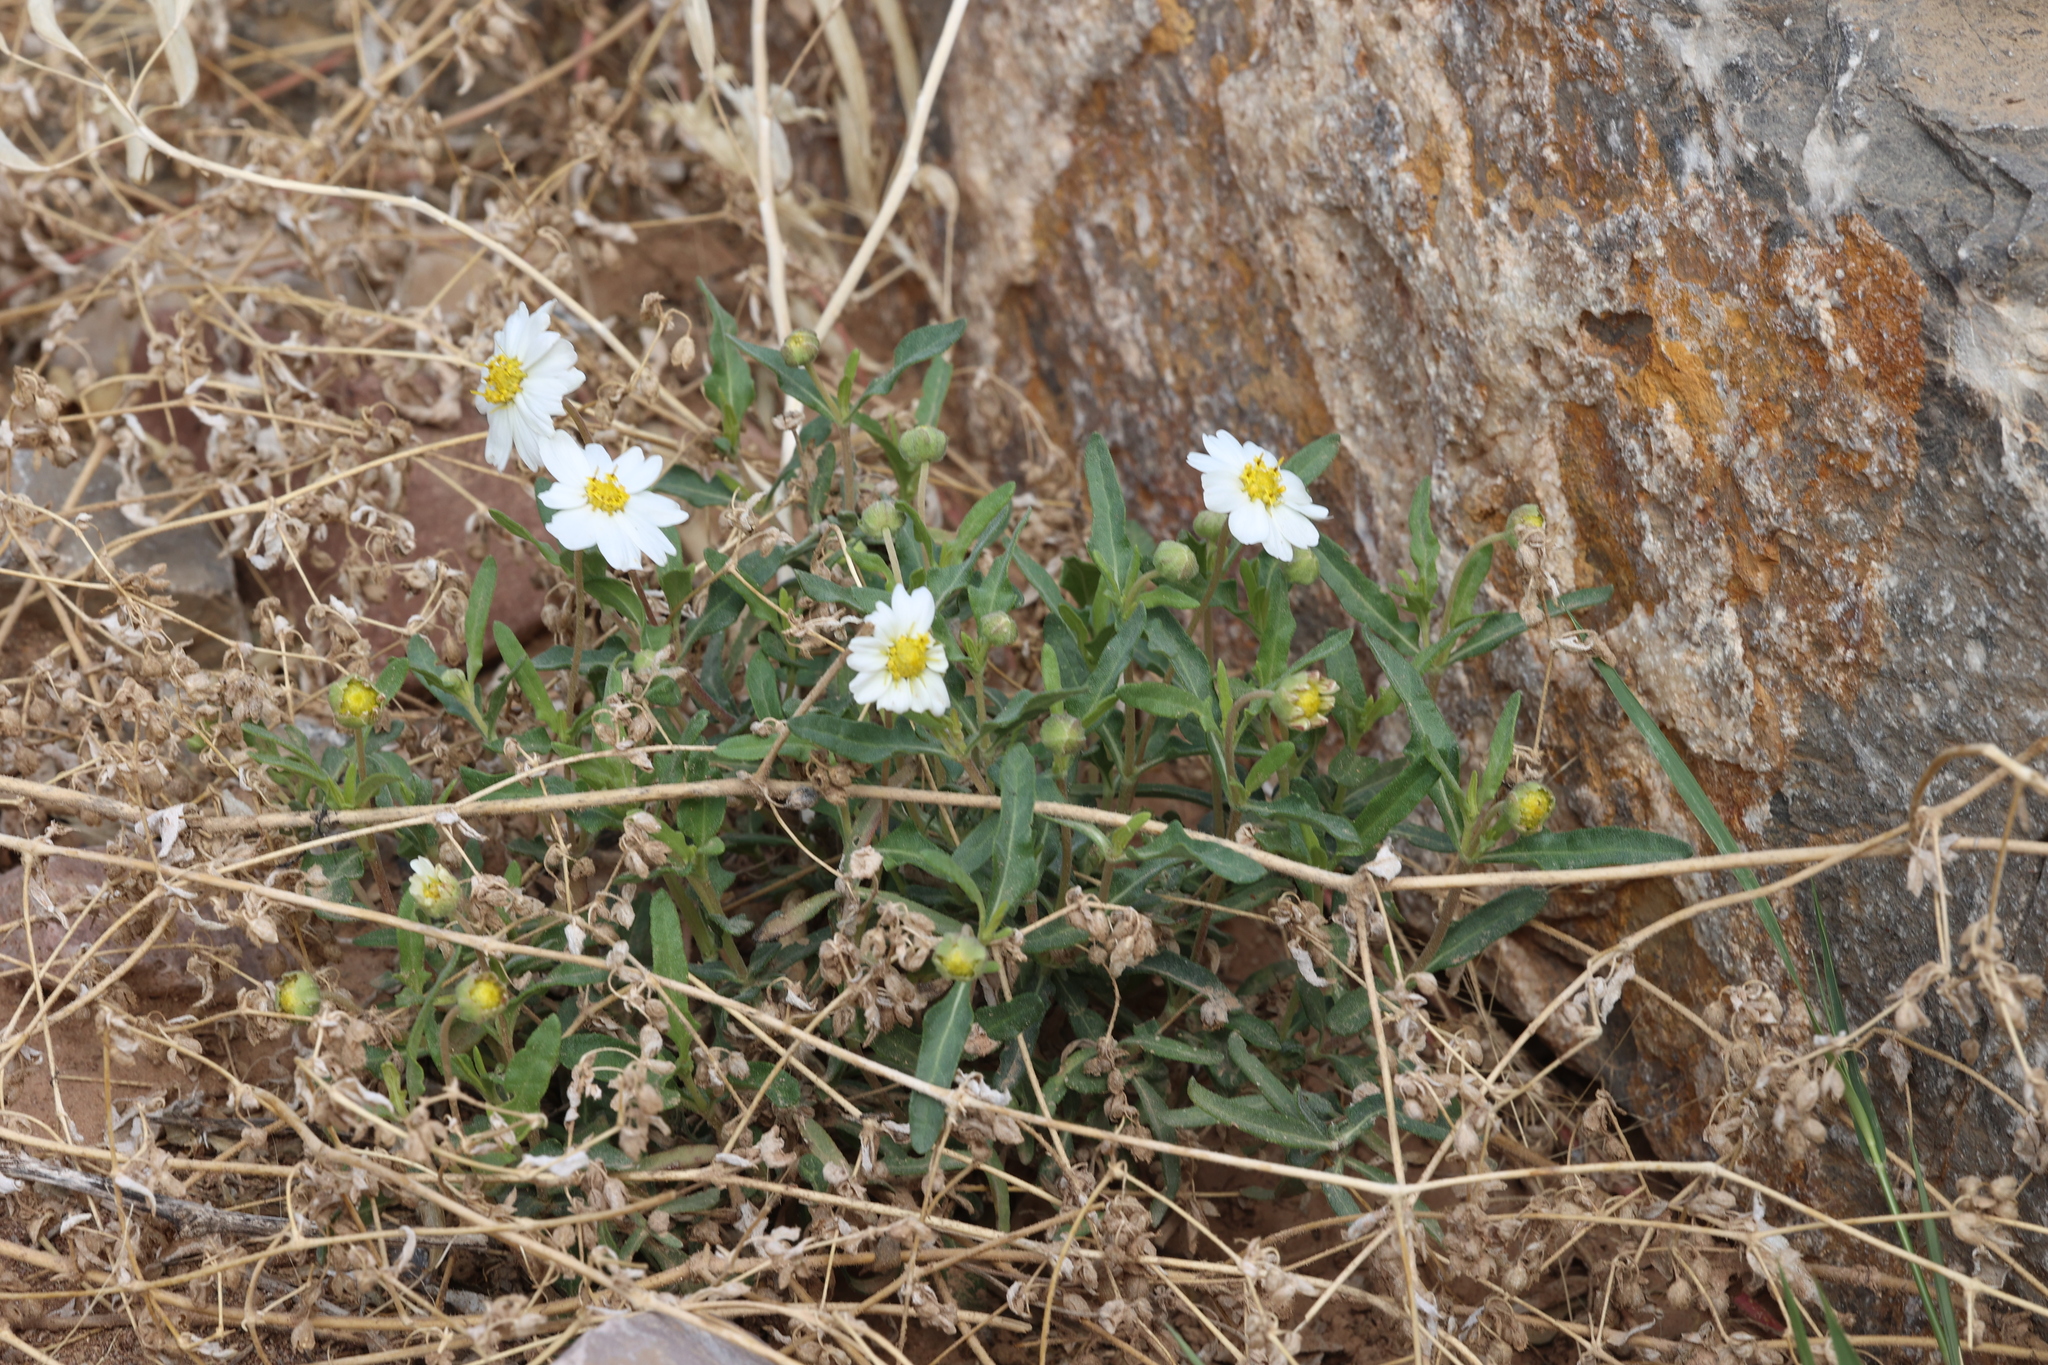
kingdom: Plantae
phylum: Tracheophyta
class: Magnoliopsida
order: Asterales
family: Asteraceae
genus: Melampodium
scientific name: Melampodium leucanthum
